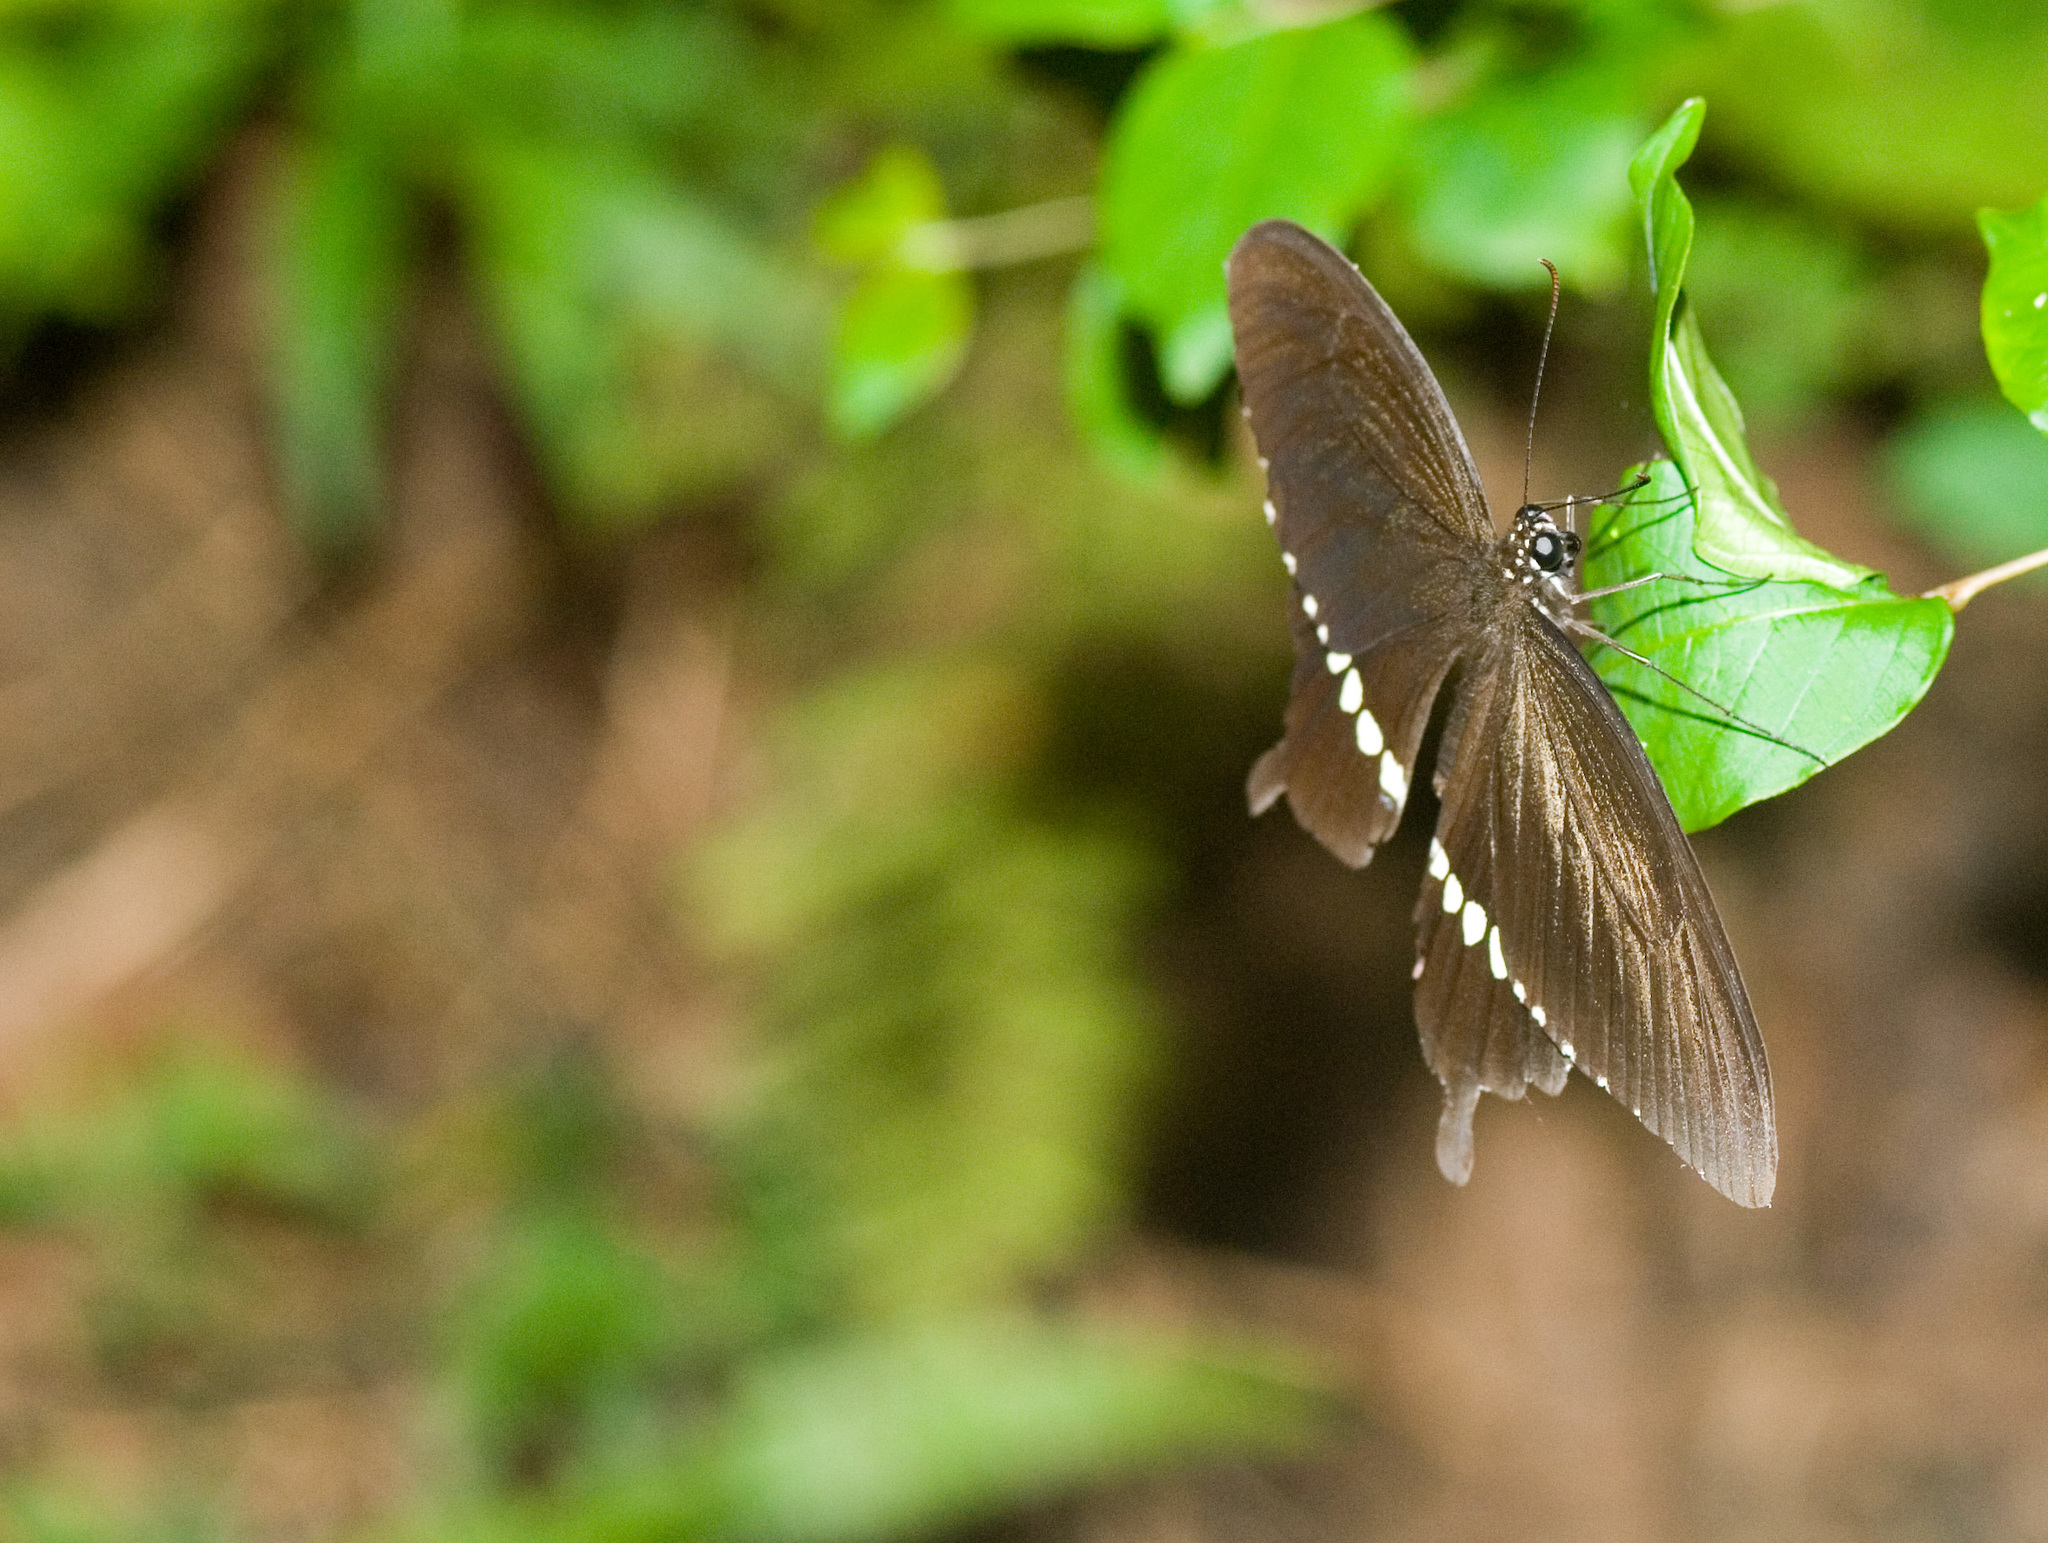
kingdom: Animalia
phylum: Arthropoda
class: Insecta
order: Lepidoptera
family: Papilionidae
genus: Papilio
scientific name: Papilio polytes
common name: Common mormon
